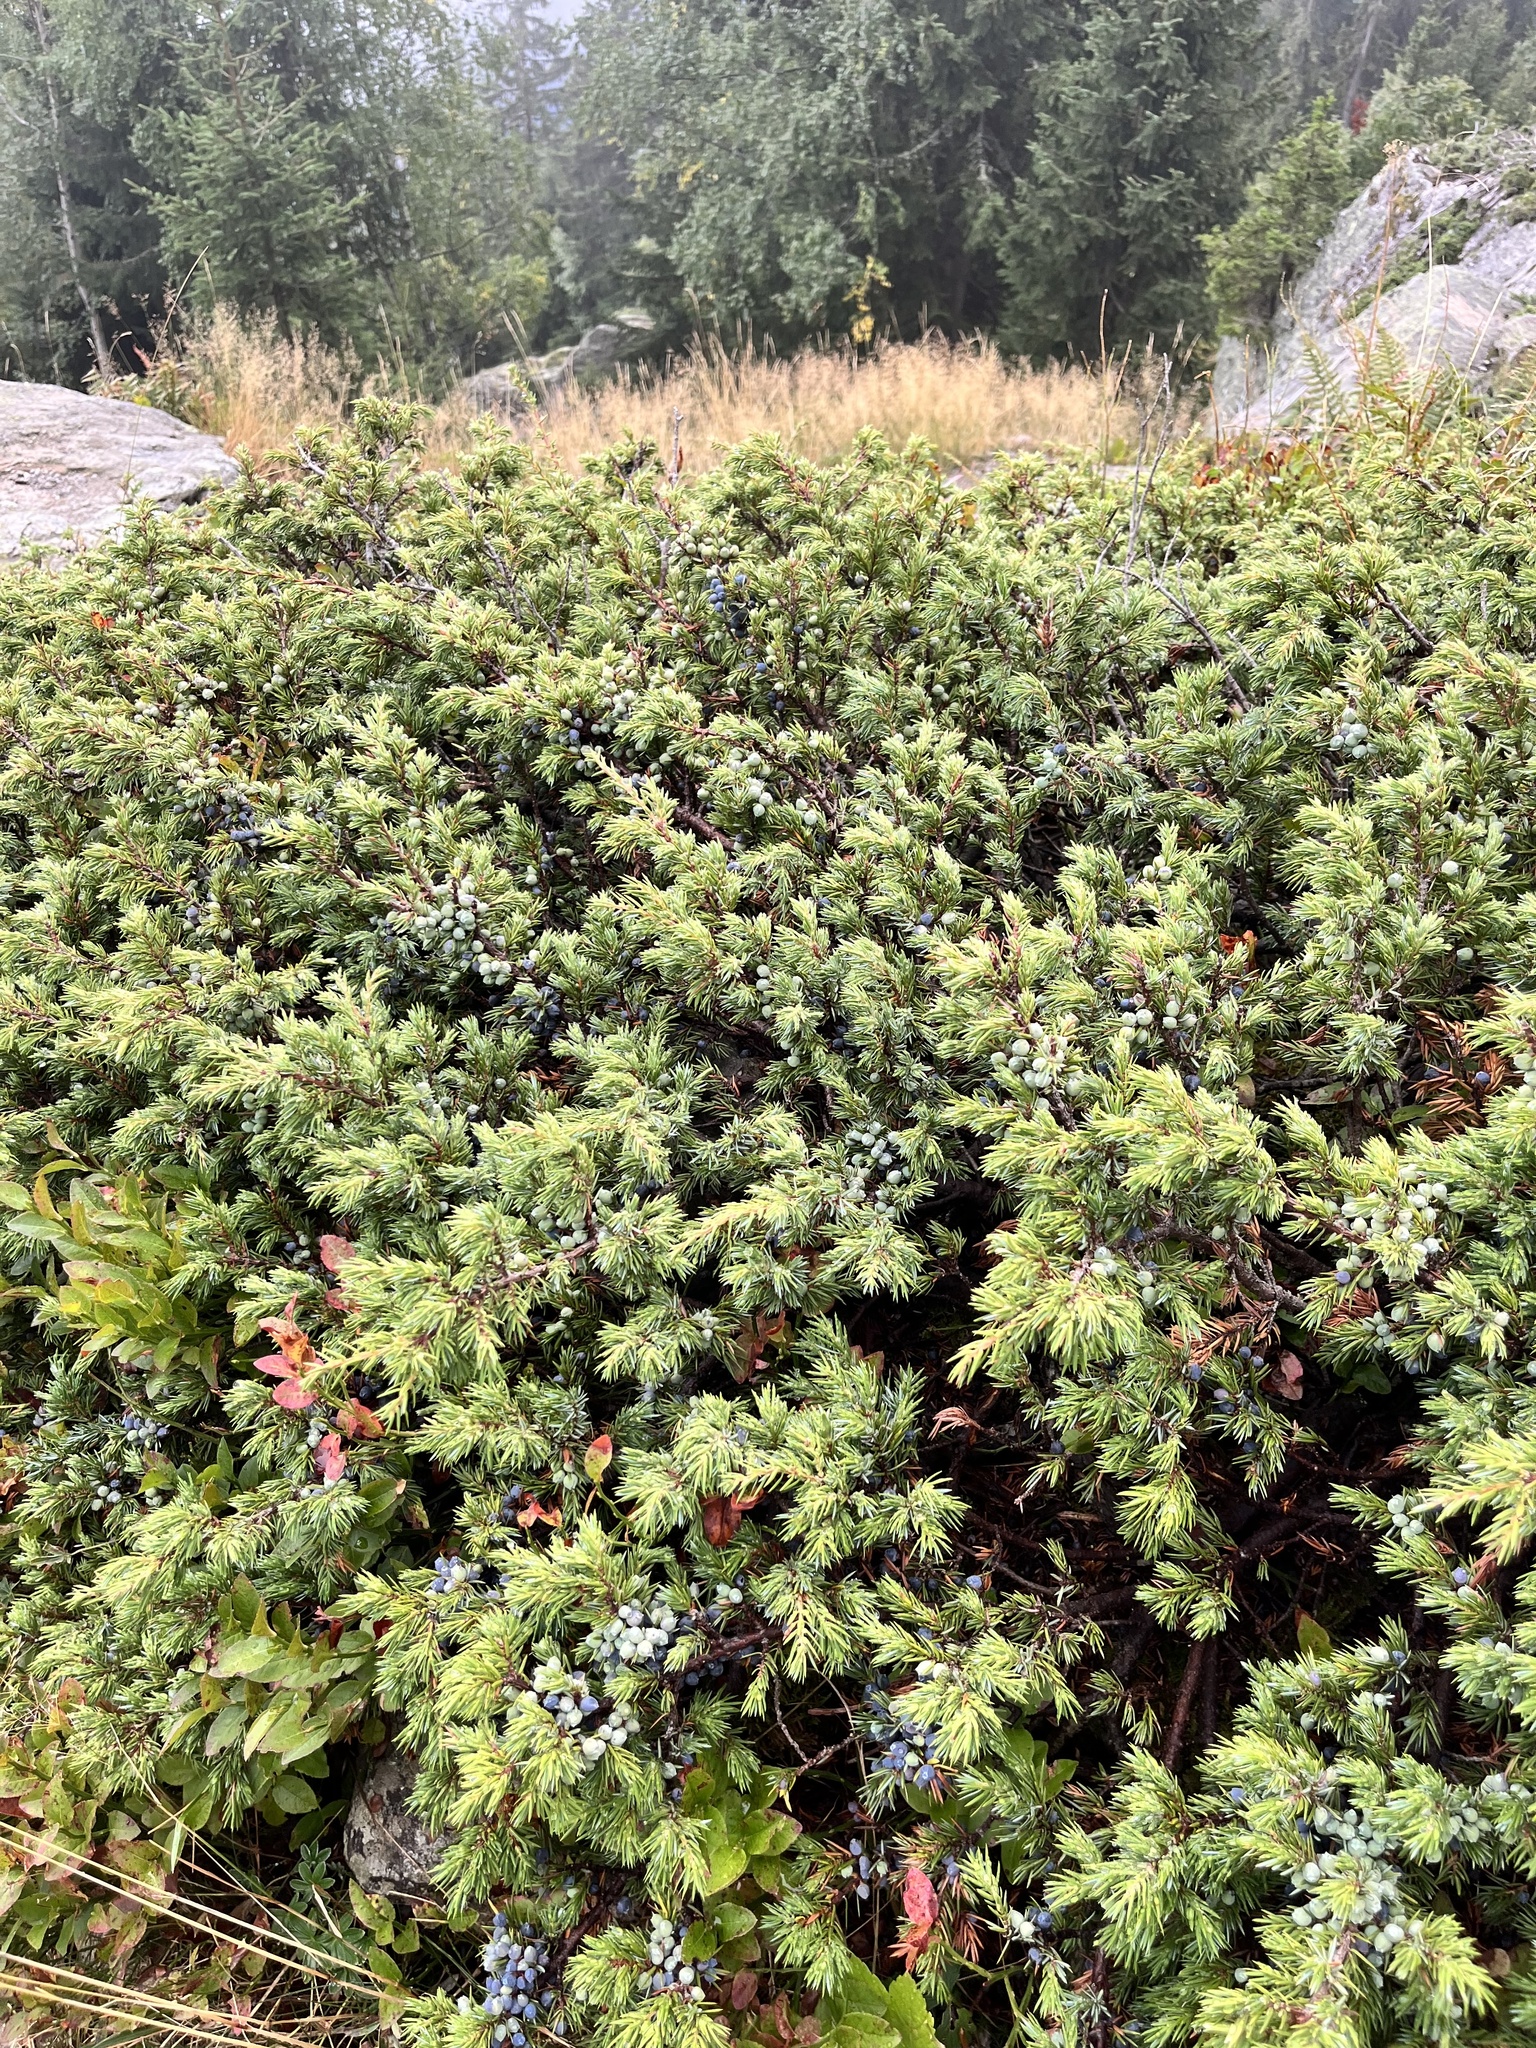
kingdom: Plantae
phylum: Tracheophyta
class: Pinopsida
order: Pinales
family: Cupressaceae
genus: Juniperus
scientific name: Juniperus communis
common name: Common juniper
